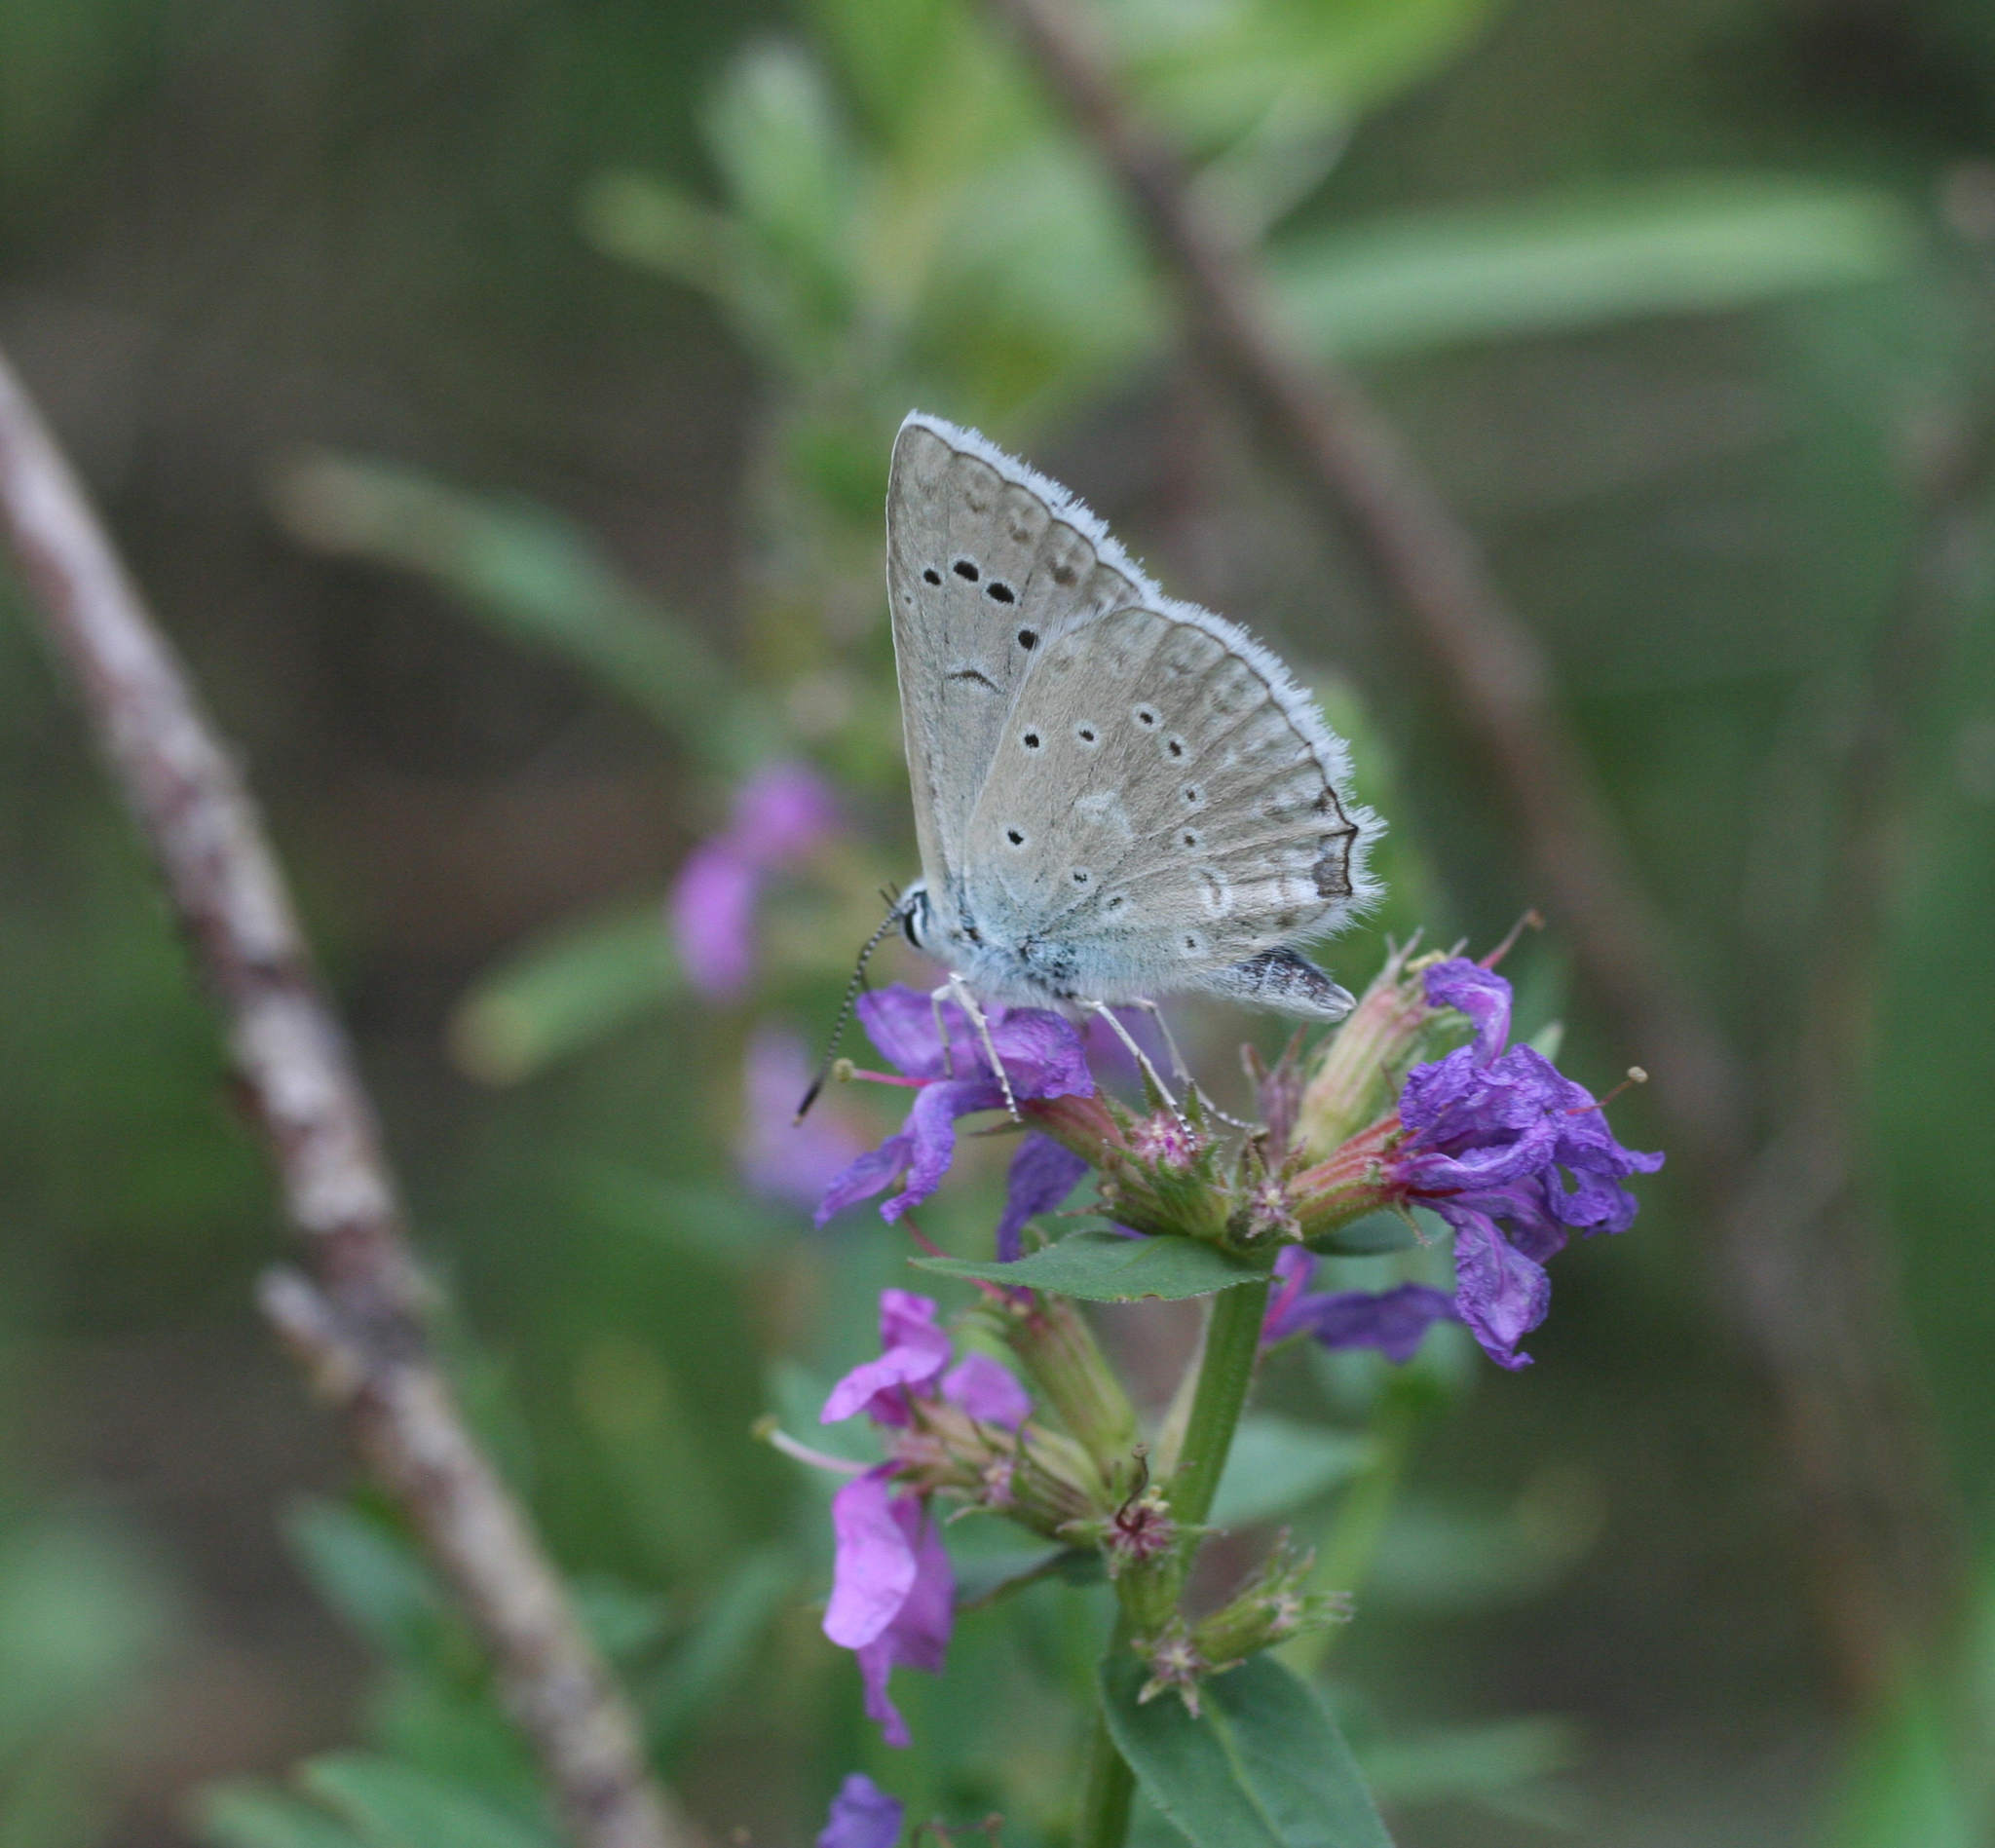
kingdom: Animalia
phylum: Arthropoda
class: Insecta
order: Lepidoptera
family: Lycaenidae
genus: Polyommatus
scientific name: Polyommatus daphnis
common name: Meleager's blue
